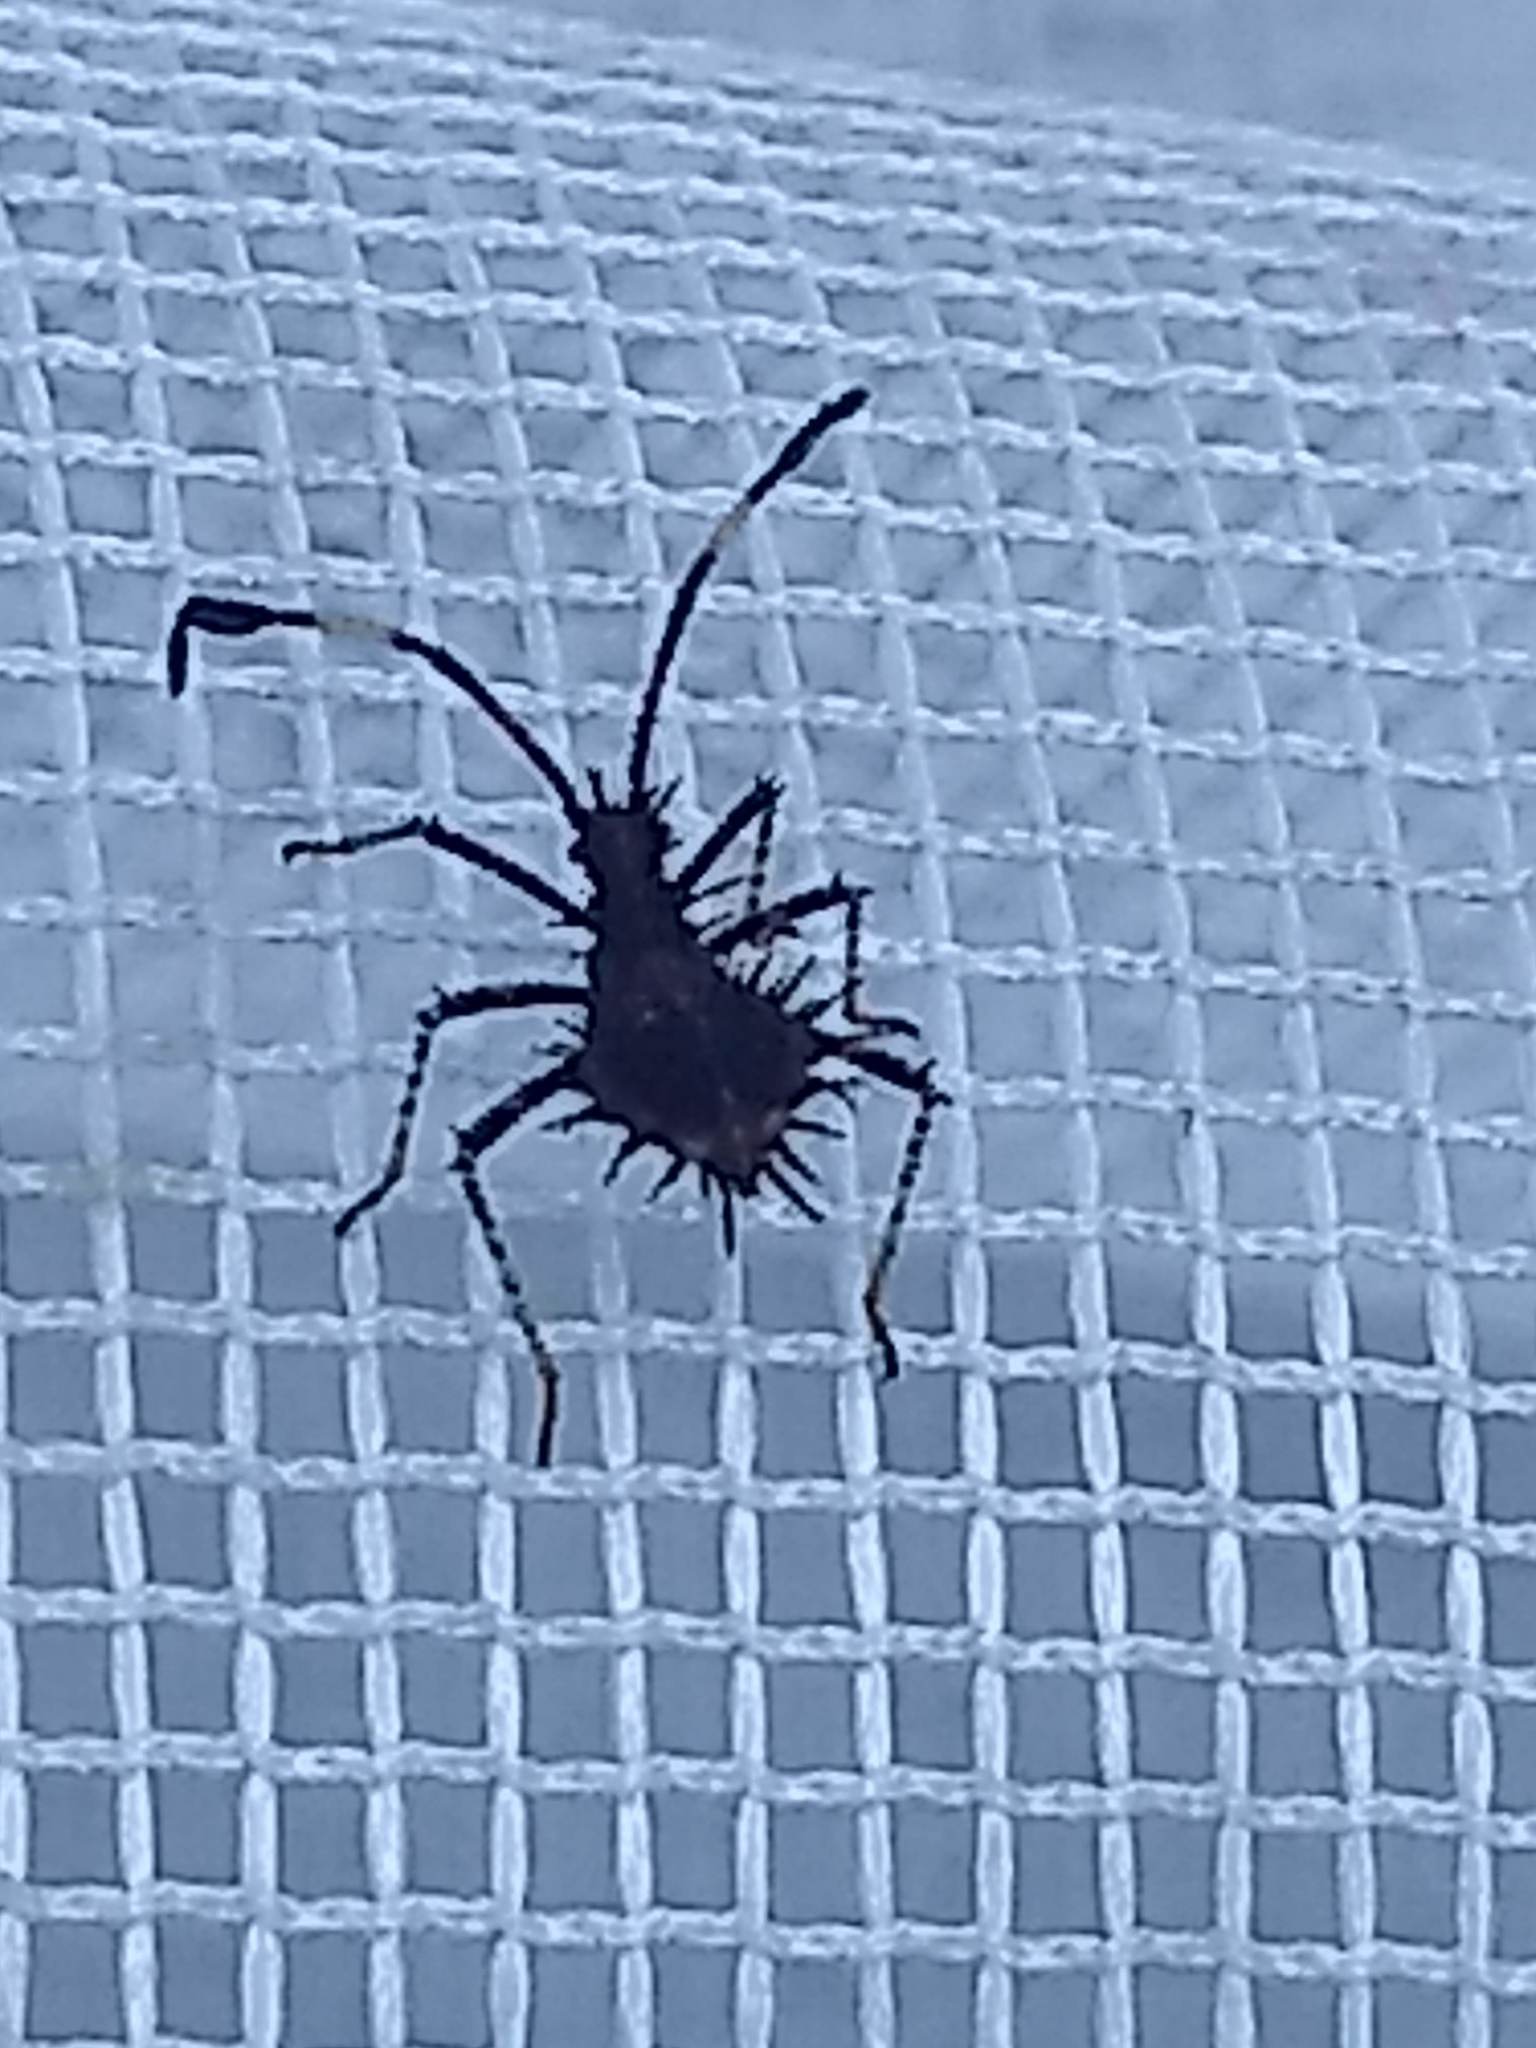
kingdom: Animalia
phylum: Arthropoda
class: Insecta
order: Hemiptera
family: Coreidae
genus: Euthochtha
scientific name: Euthochtha galeator
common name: Helmeted squash bug
